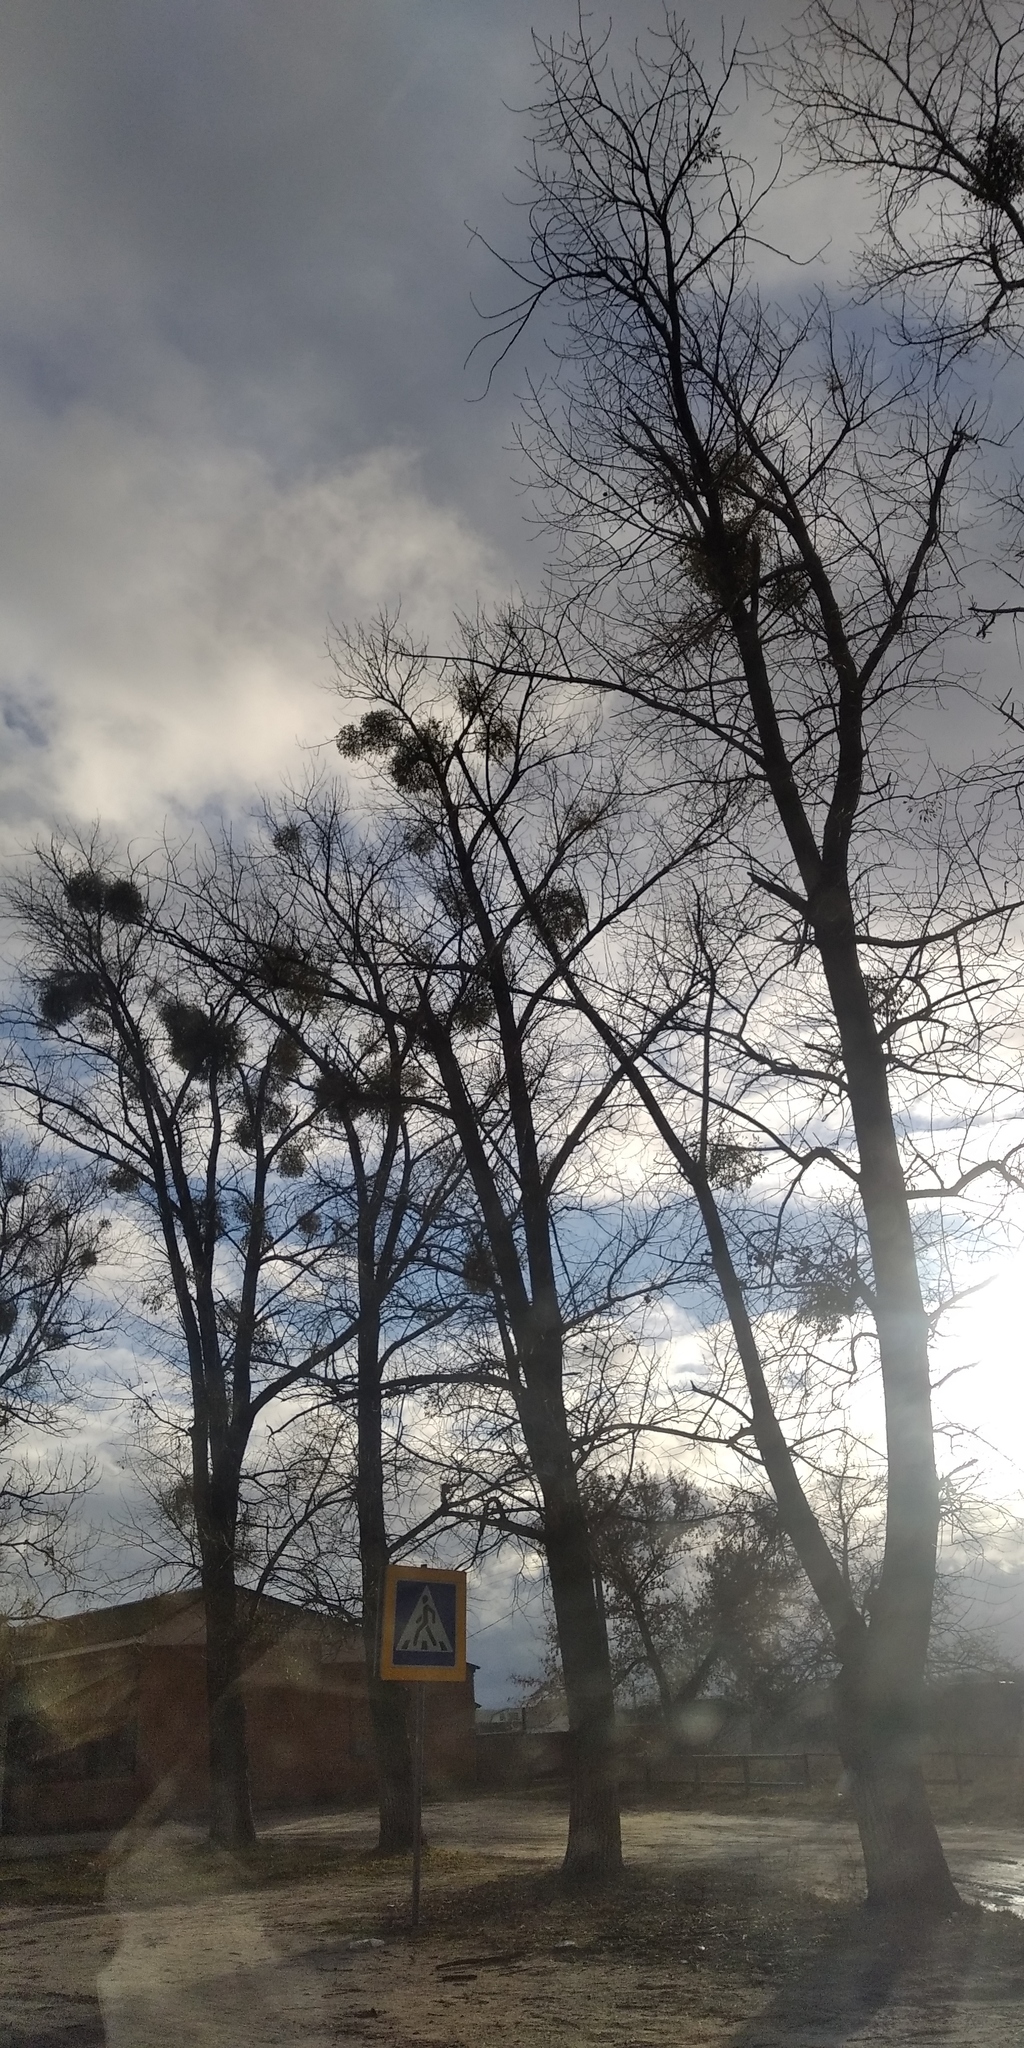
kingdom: Plantae
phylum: Tracheophyta
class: Magnoliopsida
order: Santalales
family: Viscaceae
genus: Viscum
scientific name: Viscum album
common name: Mistletoe
